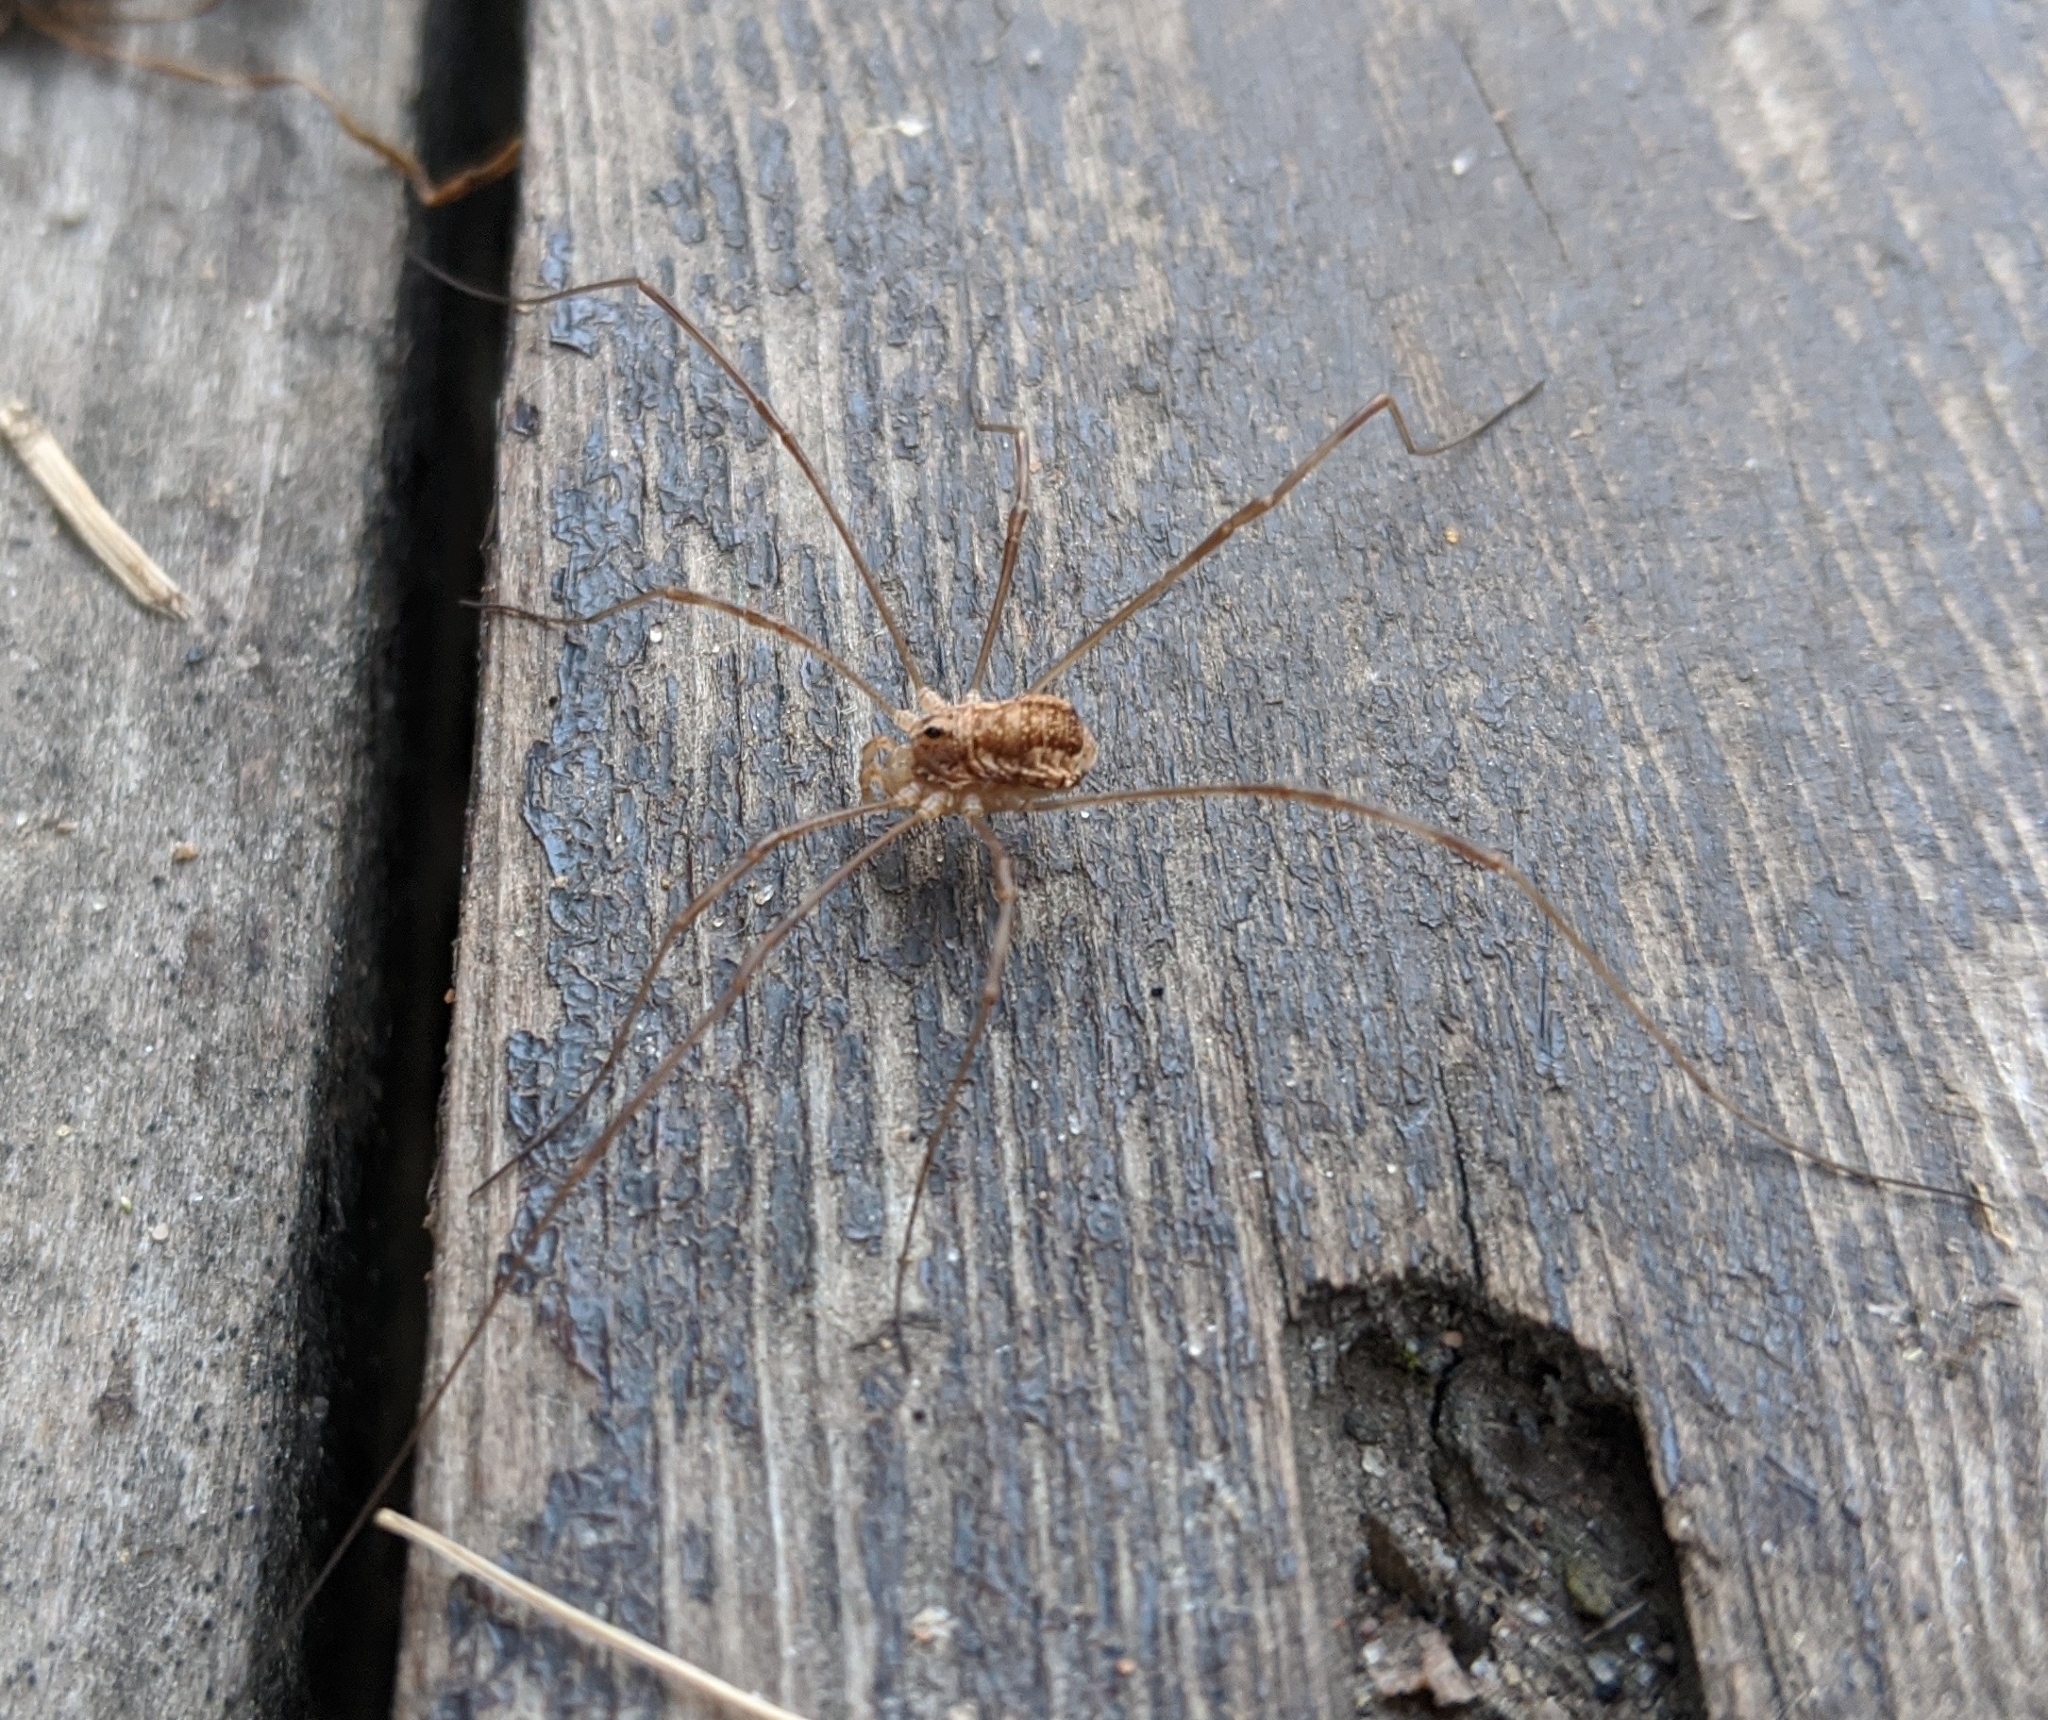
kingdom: Animalia
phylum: Arthropoda
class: Arachnida
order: Opiliones
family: Phalangiidae
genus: Rilaena
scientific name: Rilaena triangularis
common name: Spring harvestman
